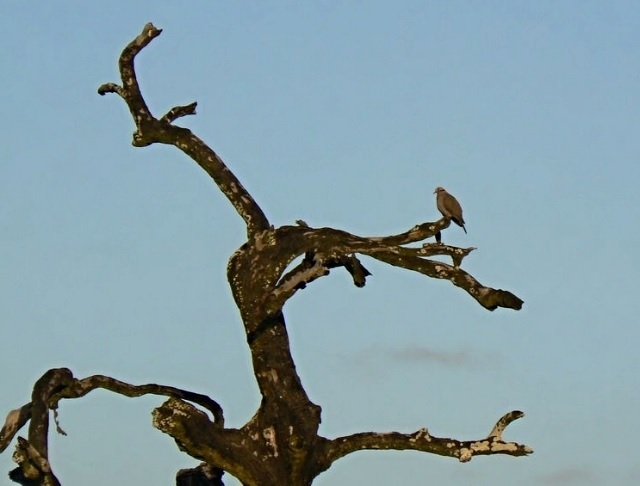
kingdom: Animalia
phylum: Chordata
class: Aves
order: Columbiformes
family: Columbidae
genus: Streptopelia
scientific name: Streptopelia semitorquata
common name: Red-eyed dove
